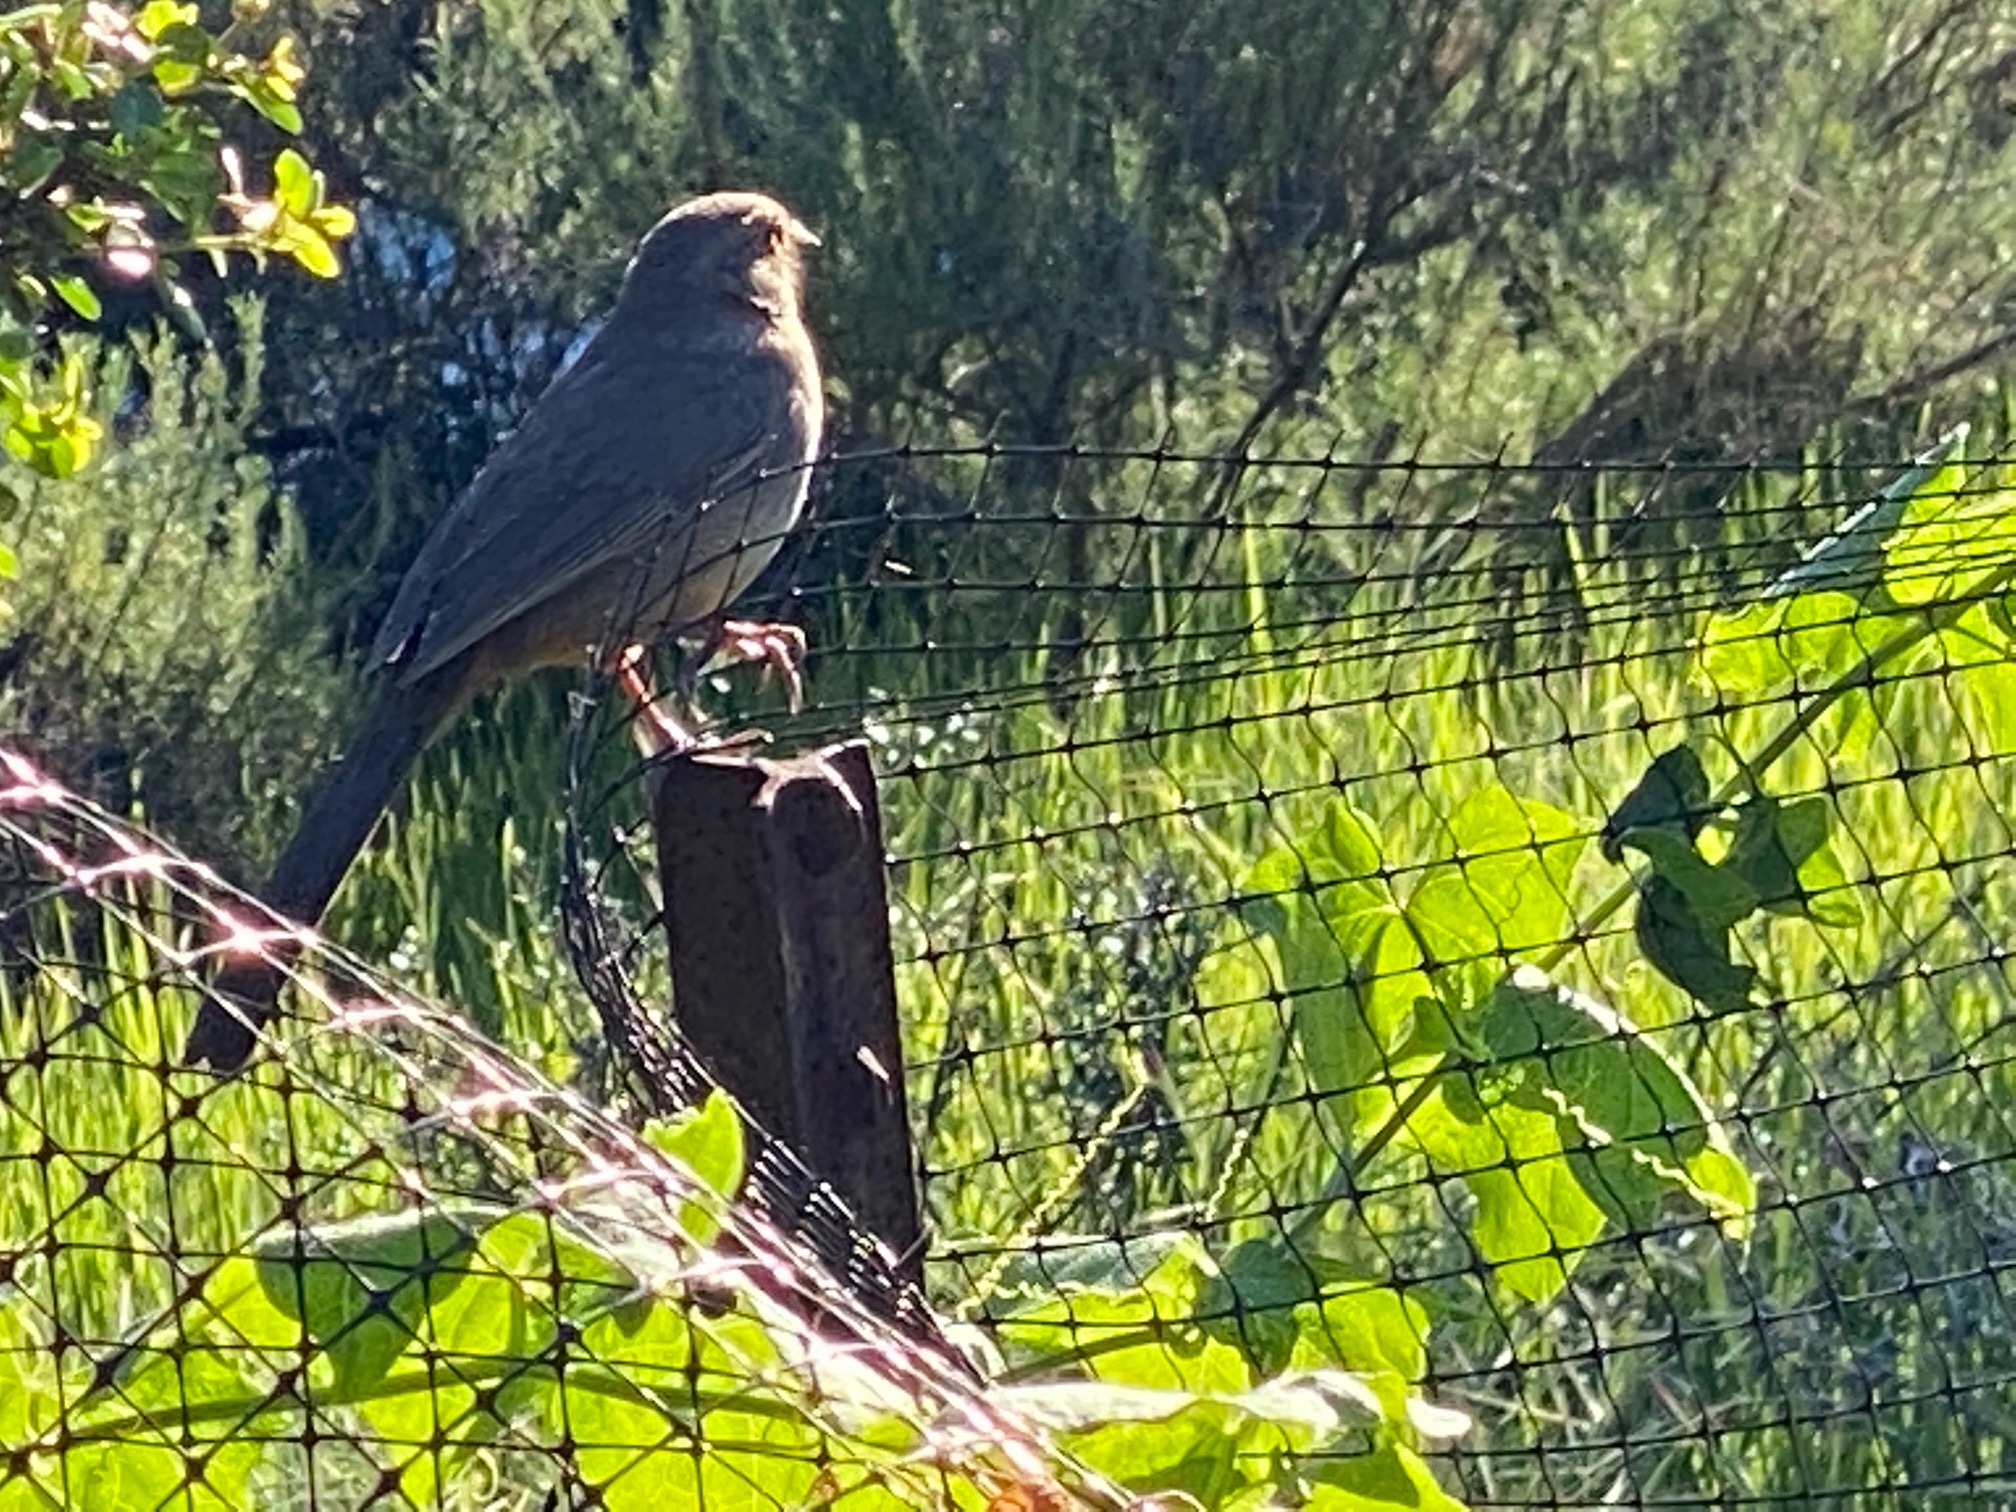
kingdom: Animalia
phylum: Chordata
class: Aves
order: Passeriformes
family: Passerellidae
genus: Melozone
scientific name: Melozone crissalis
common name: California towhee
